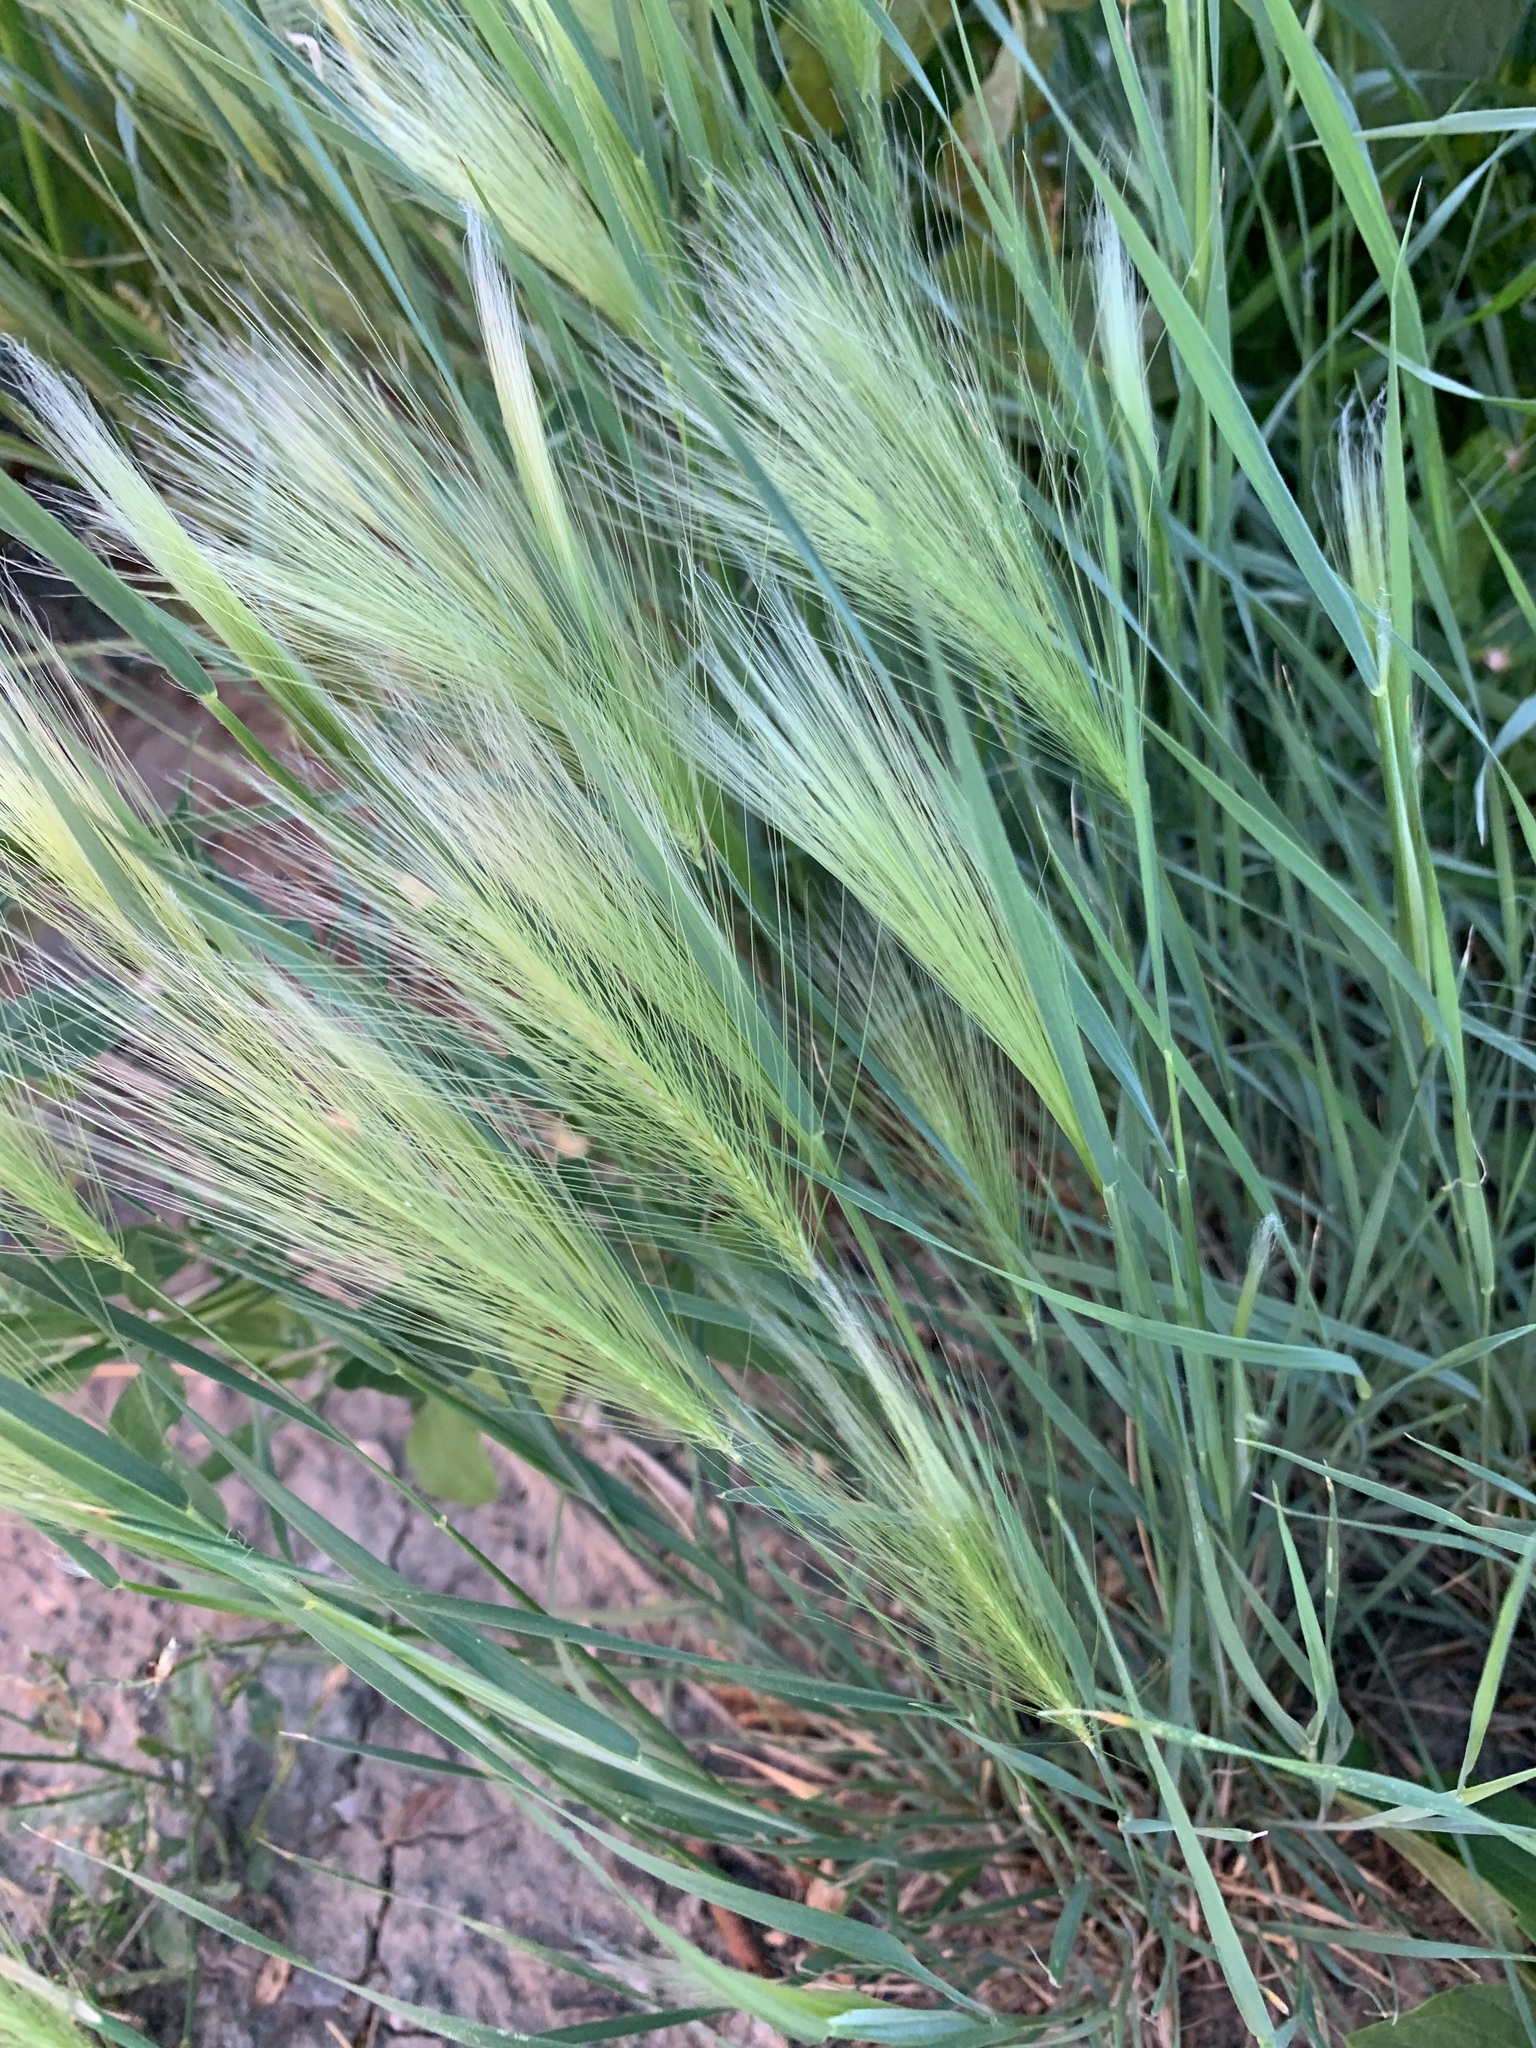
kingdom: Plantae
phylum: Tracheophyta
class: Liliopsida
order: Poales
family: Poaceae
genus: Hordeum
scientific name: Hordeum jubatum
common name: Foxtail barley
